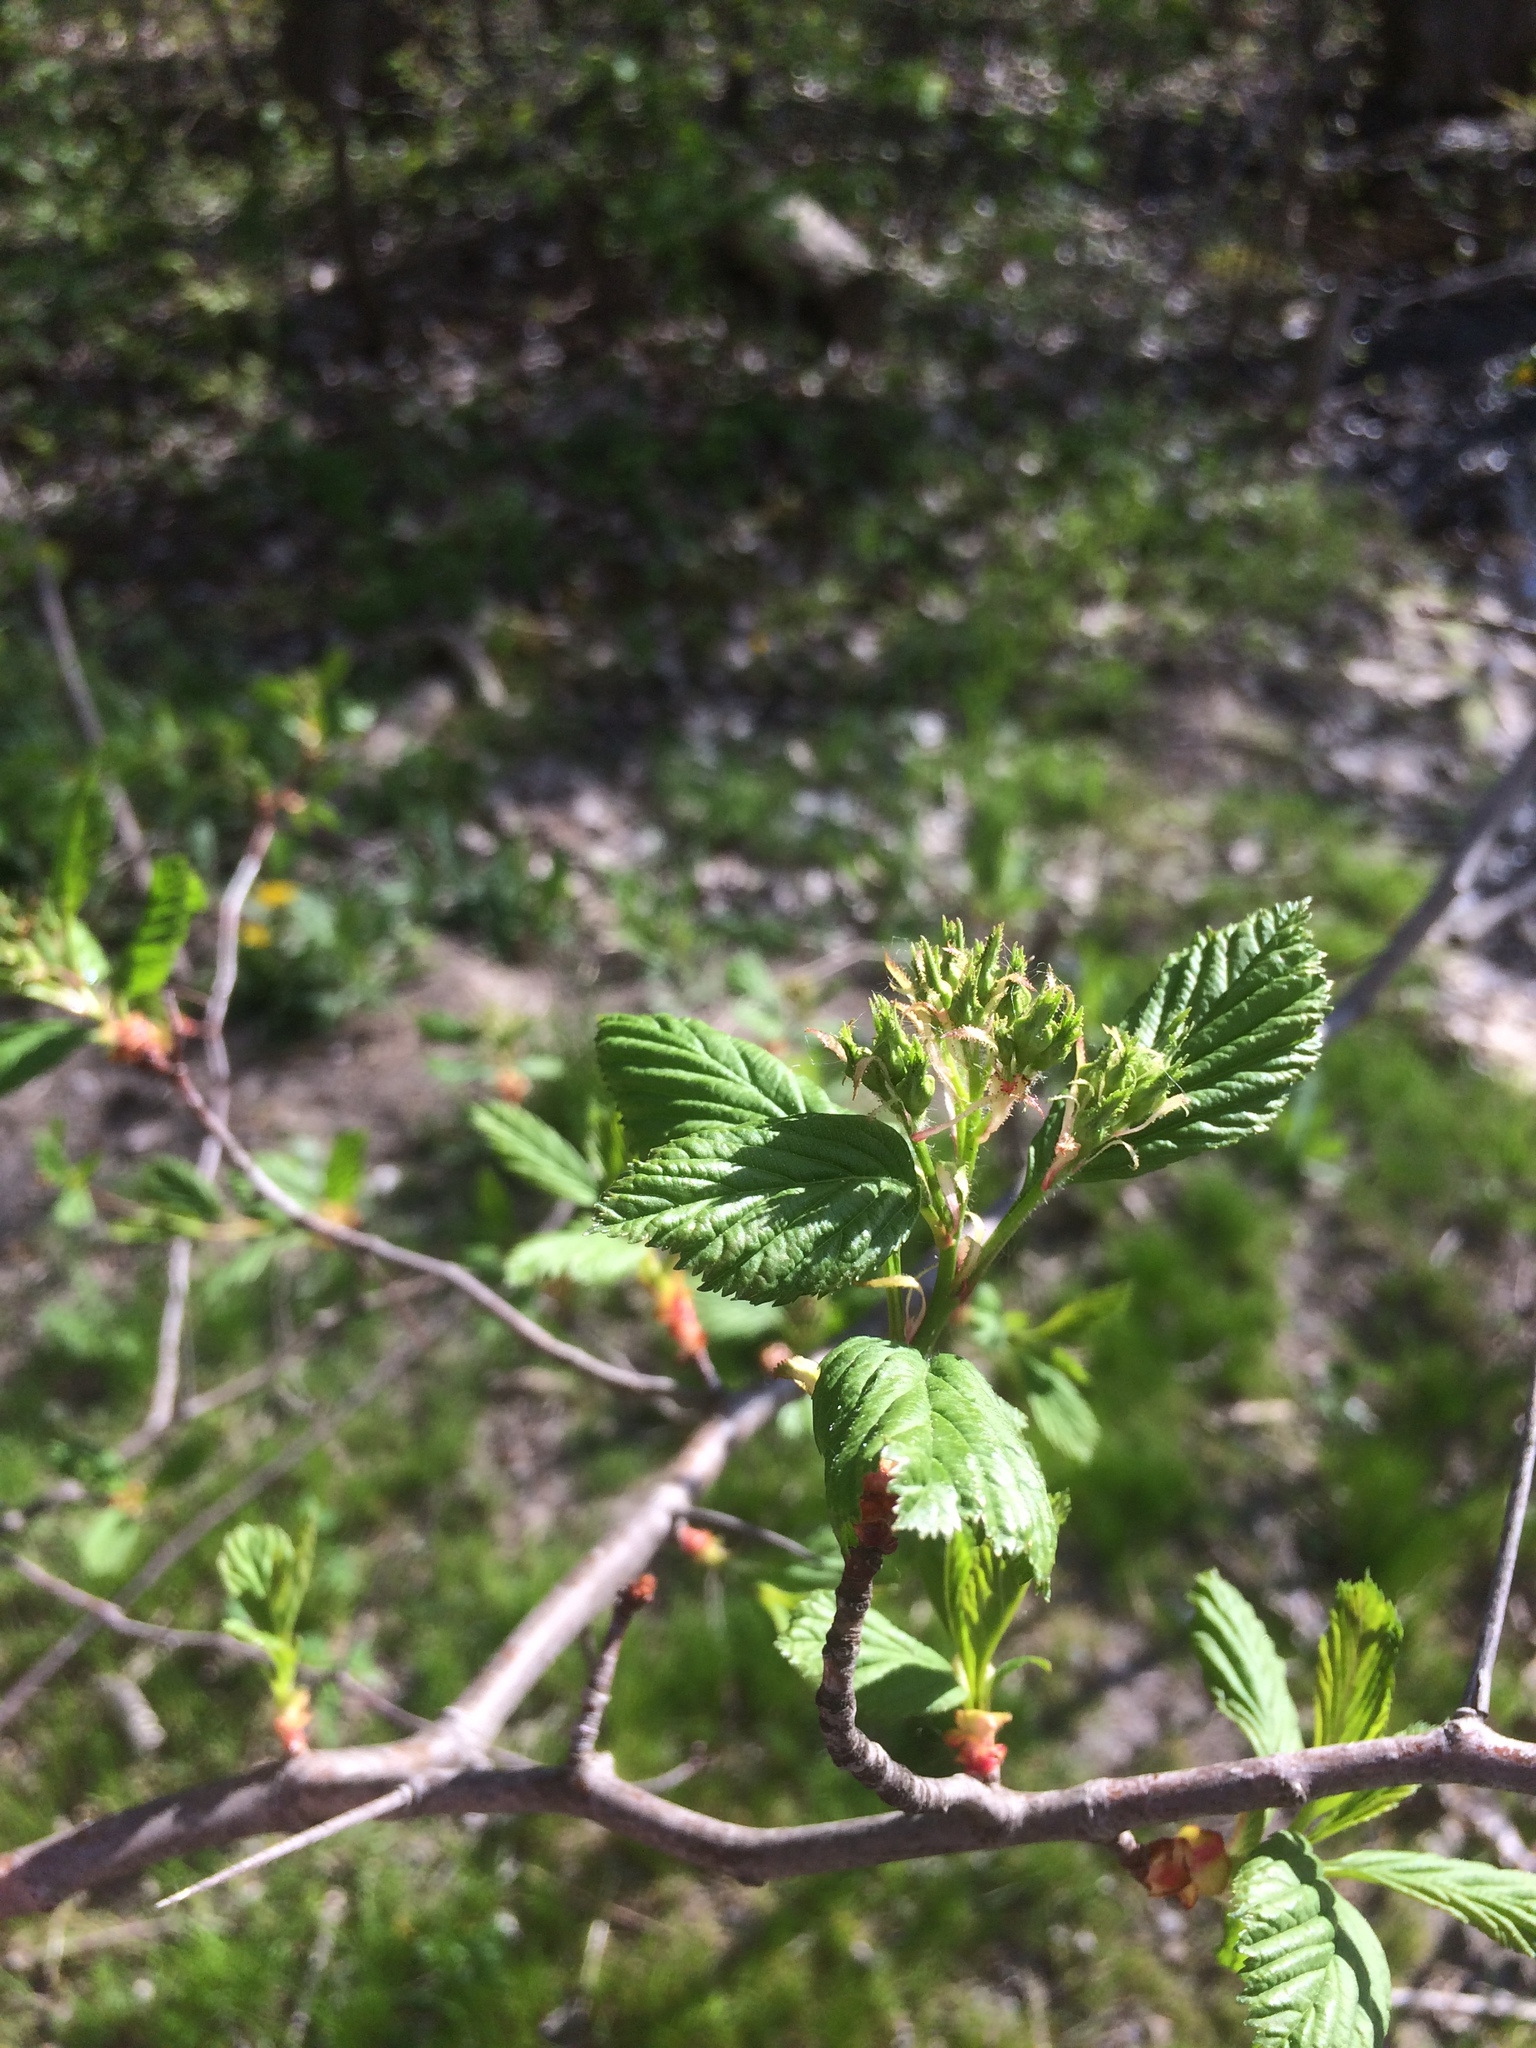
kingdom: Plantae
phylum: Tracheophyta
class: Magnoliopsida
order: Rosales
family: Rosaceae
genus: Crataegus
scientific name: Crataegus macracantha
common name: Large-thorn hawthorn
